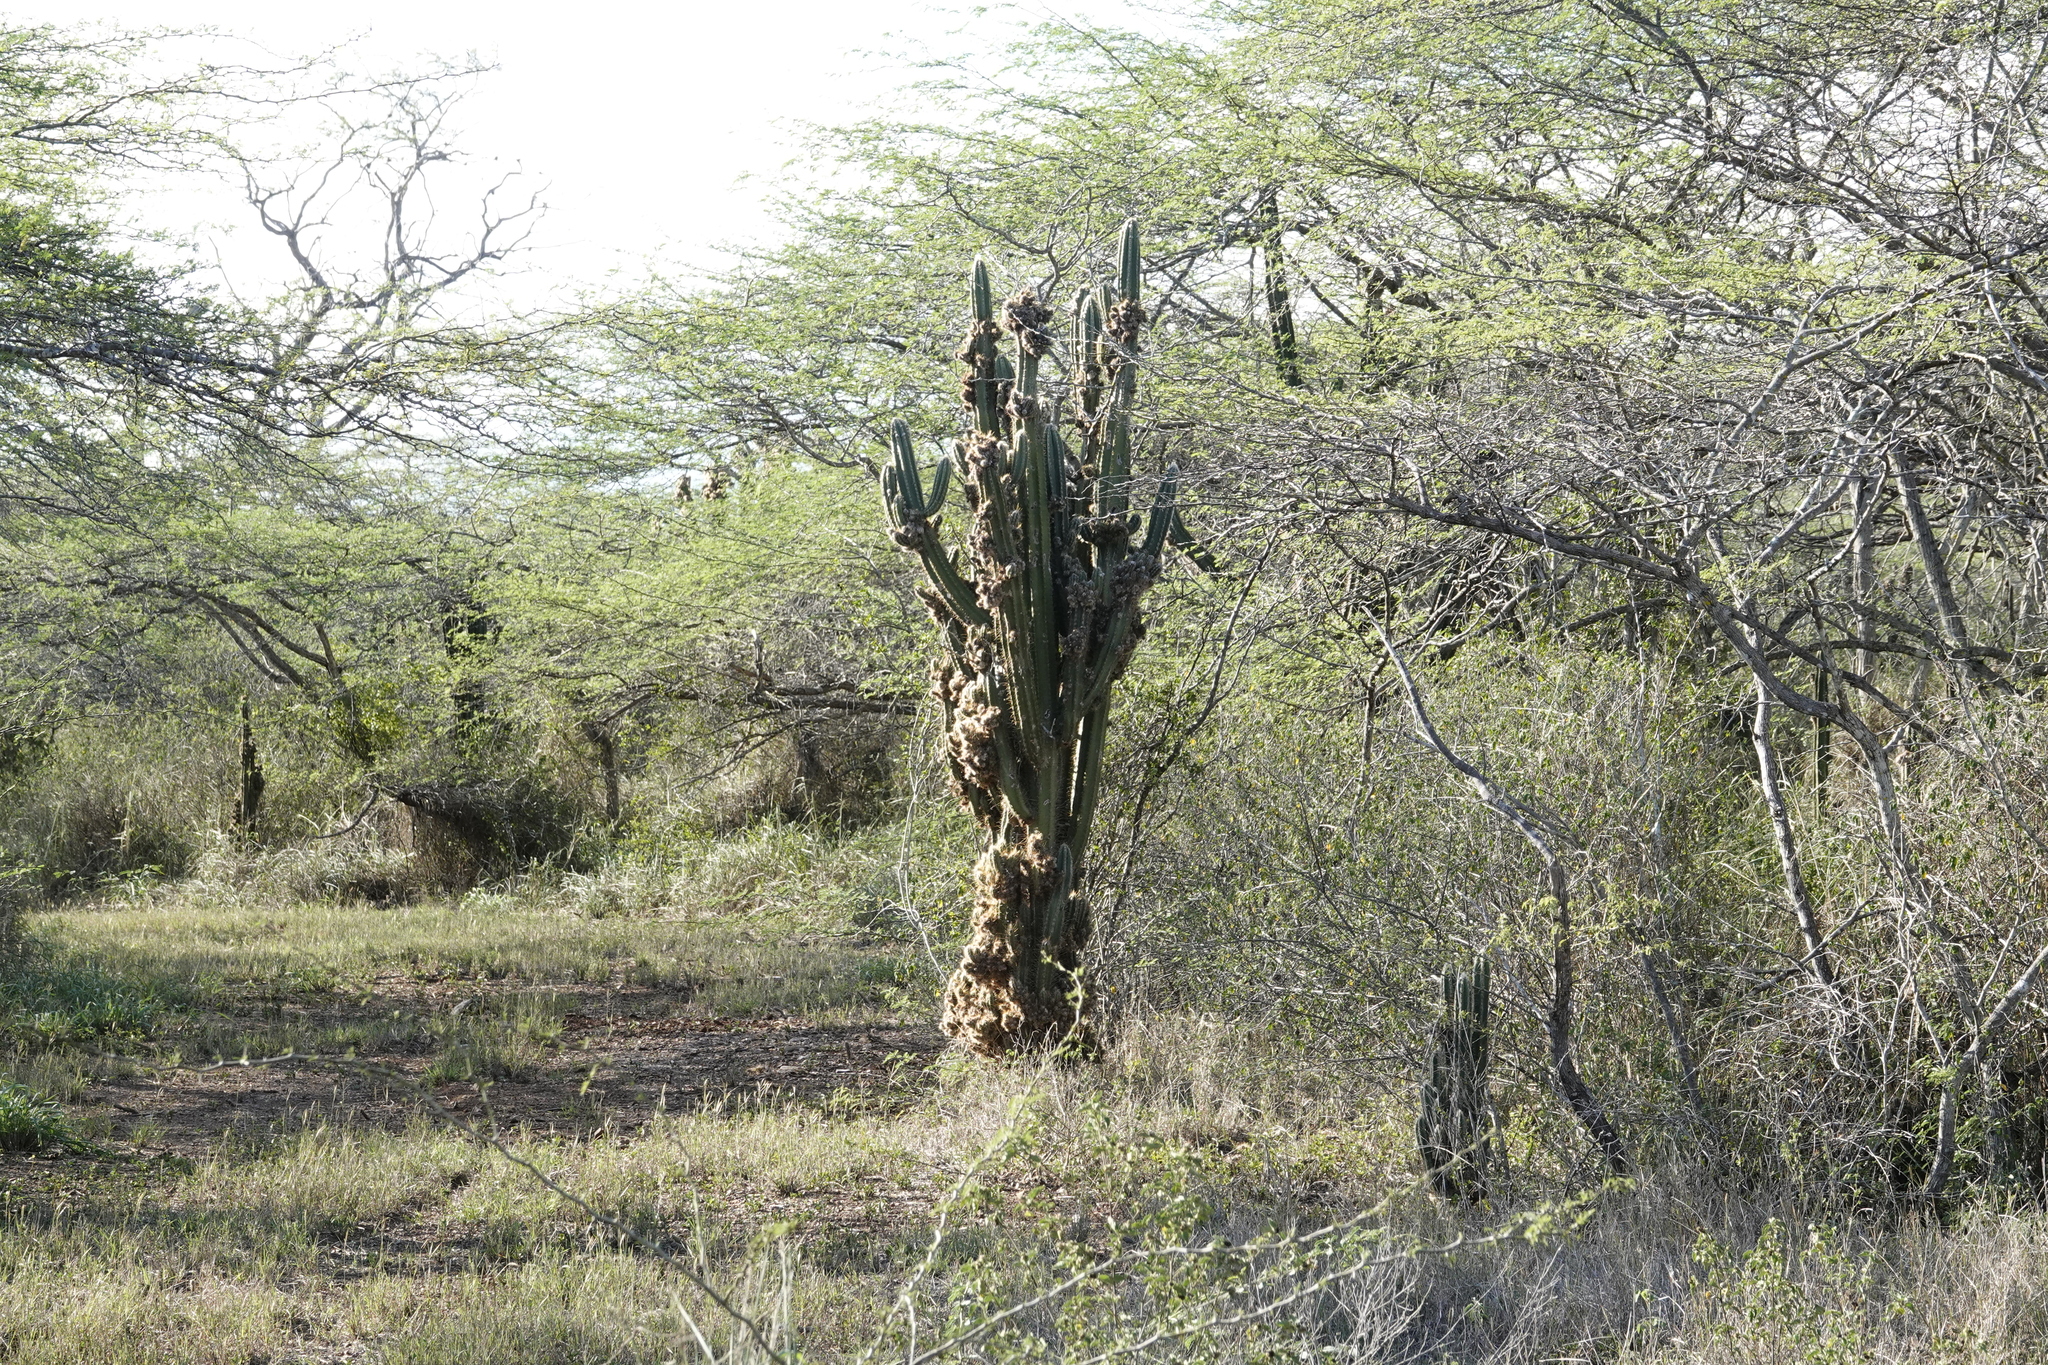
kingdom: Plantae
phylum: Tracheophyta
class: Magnoliopsida
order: Caryophyllales
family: Cactaceae
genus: Pilosocereus
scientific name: Pilosocereus armatus
